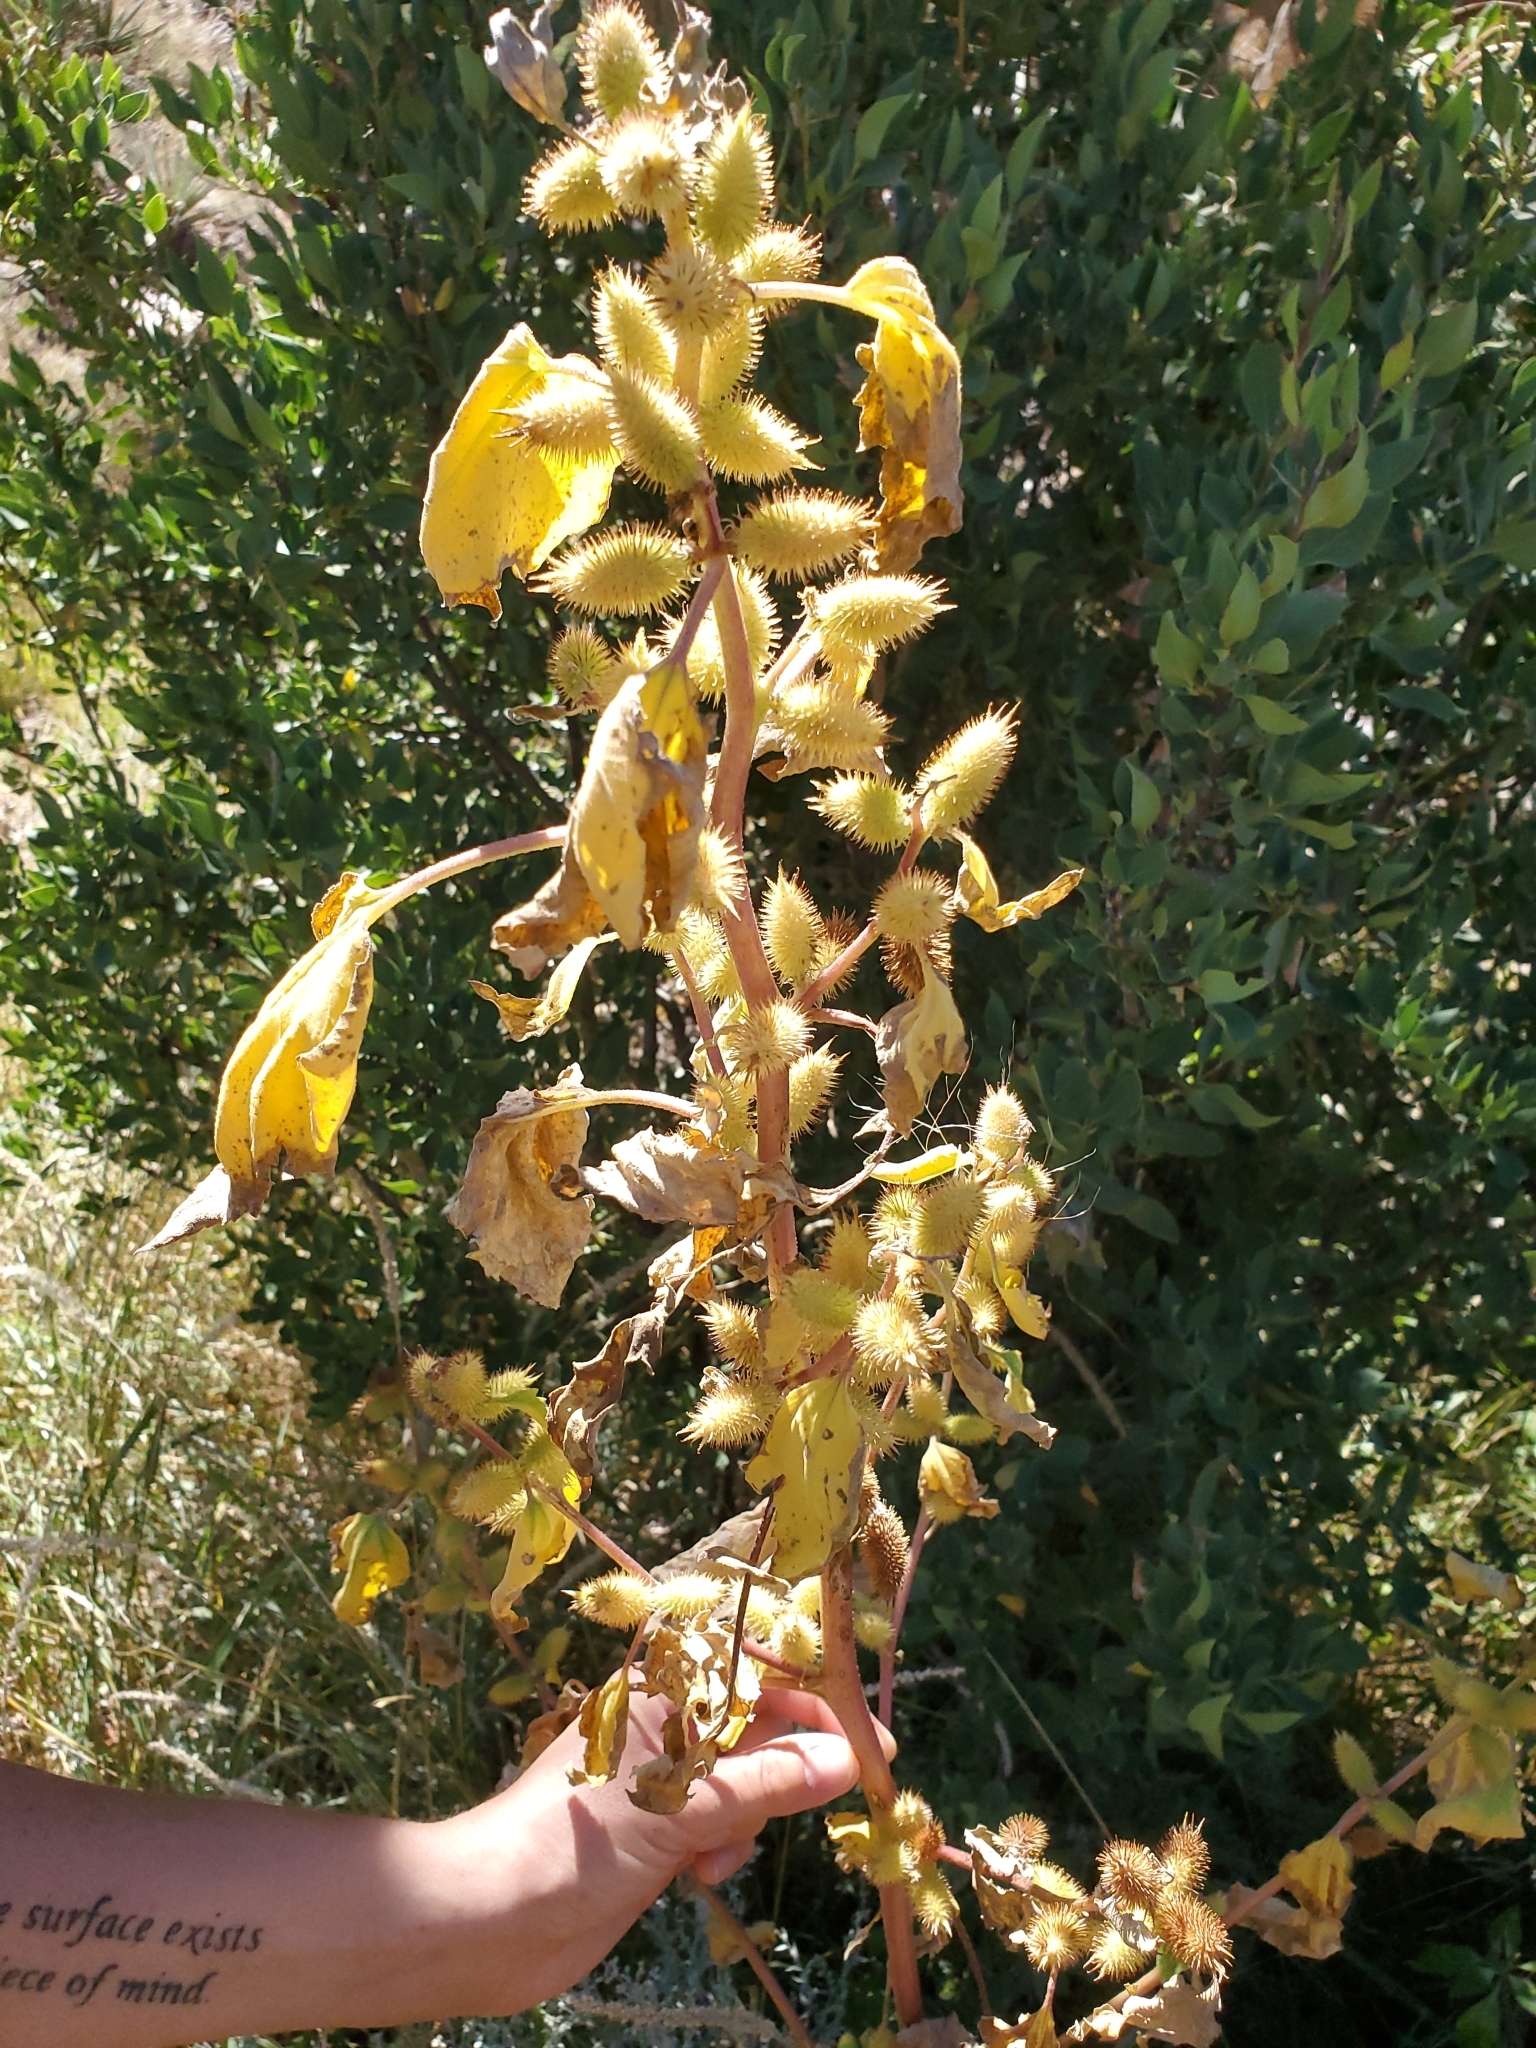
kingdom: Plantae
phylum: Tracheophyta
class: Magnoliopsida
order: Asterales
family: Asteraceae
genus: Xanthium
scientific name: Xanthium strumarium
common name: Rough cocklebur
